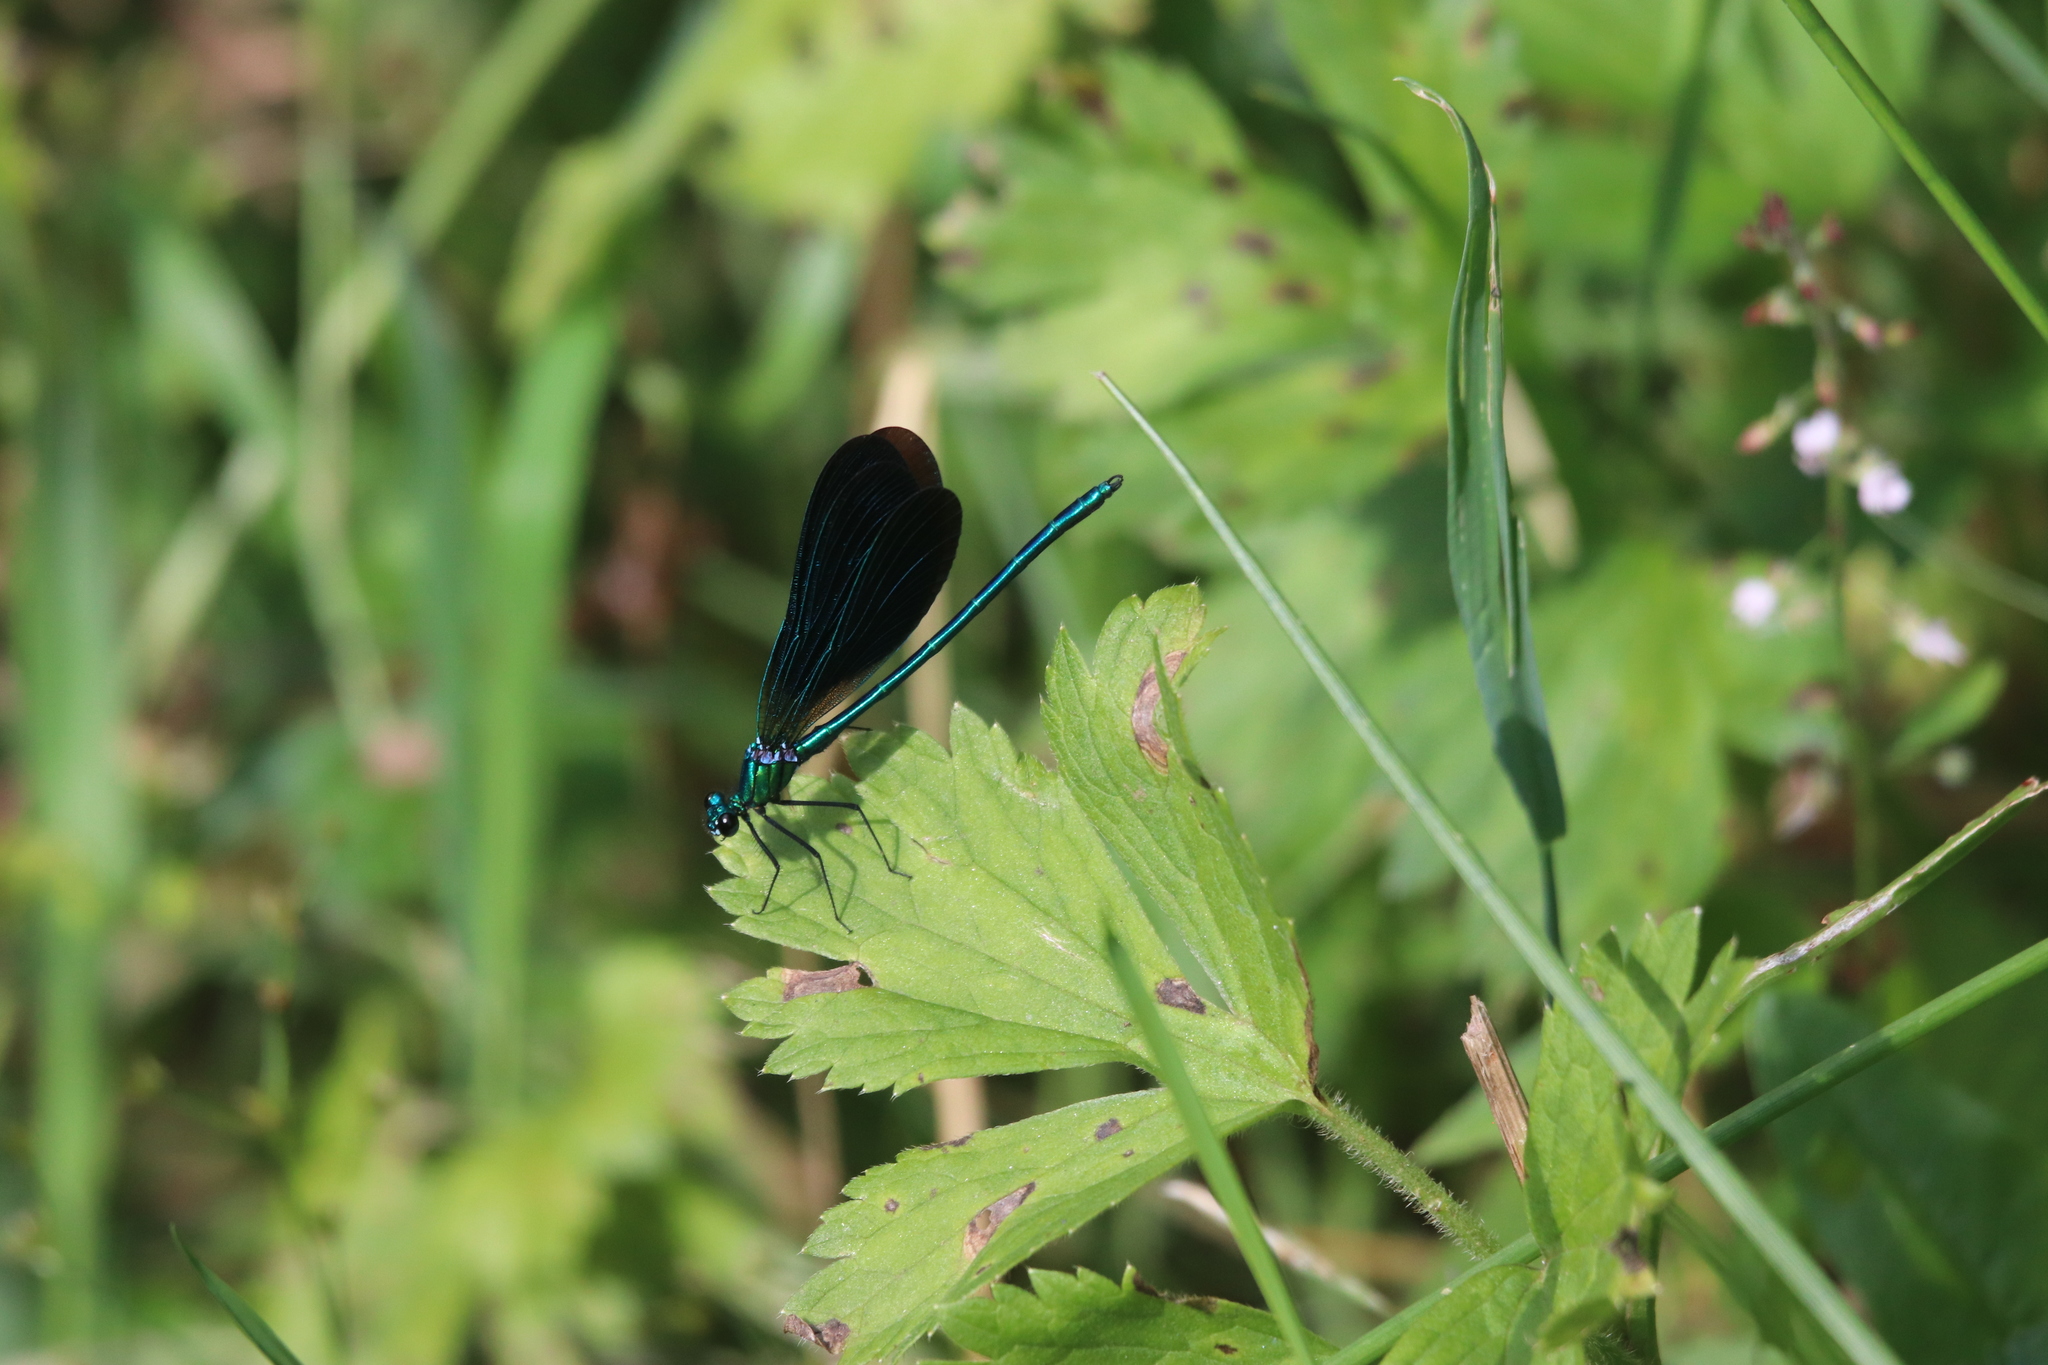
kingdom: Animalia
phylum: Arthropoda
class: Insecta
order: Odonata
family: Calopterygidae
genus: Calopteryx
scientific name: Calopteryx virgo
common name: Beautiful demoiselle
